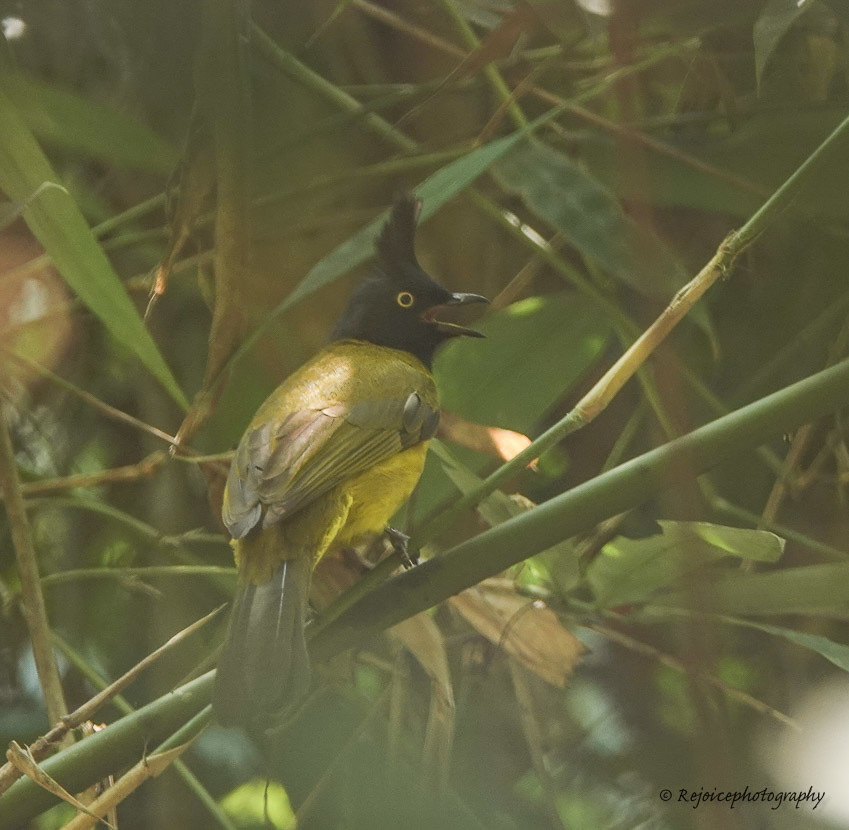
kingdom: Animalia
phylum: Chordata
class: Aves
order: Passeriformes
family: Pycnonotidae
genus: Pycnonotus
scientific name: Pycnonotus flaviventris
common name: Black-crested bulbul
